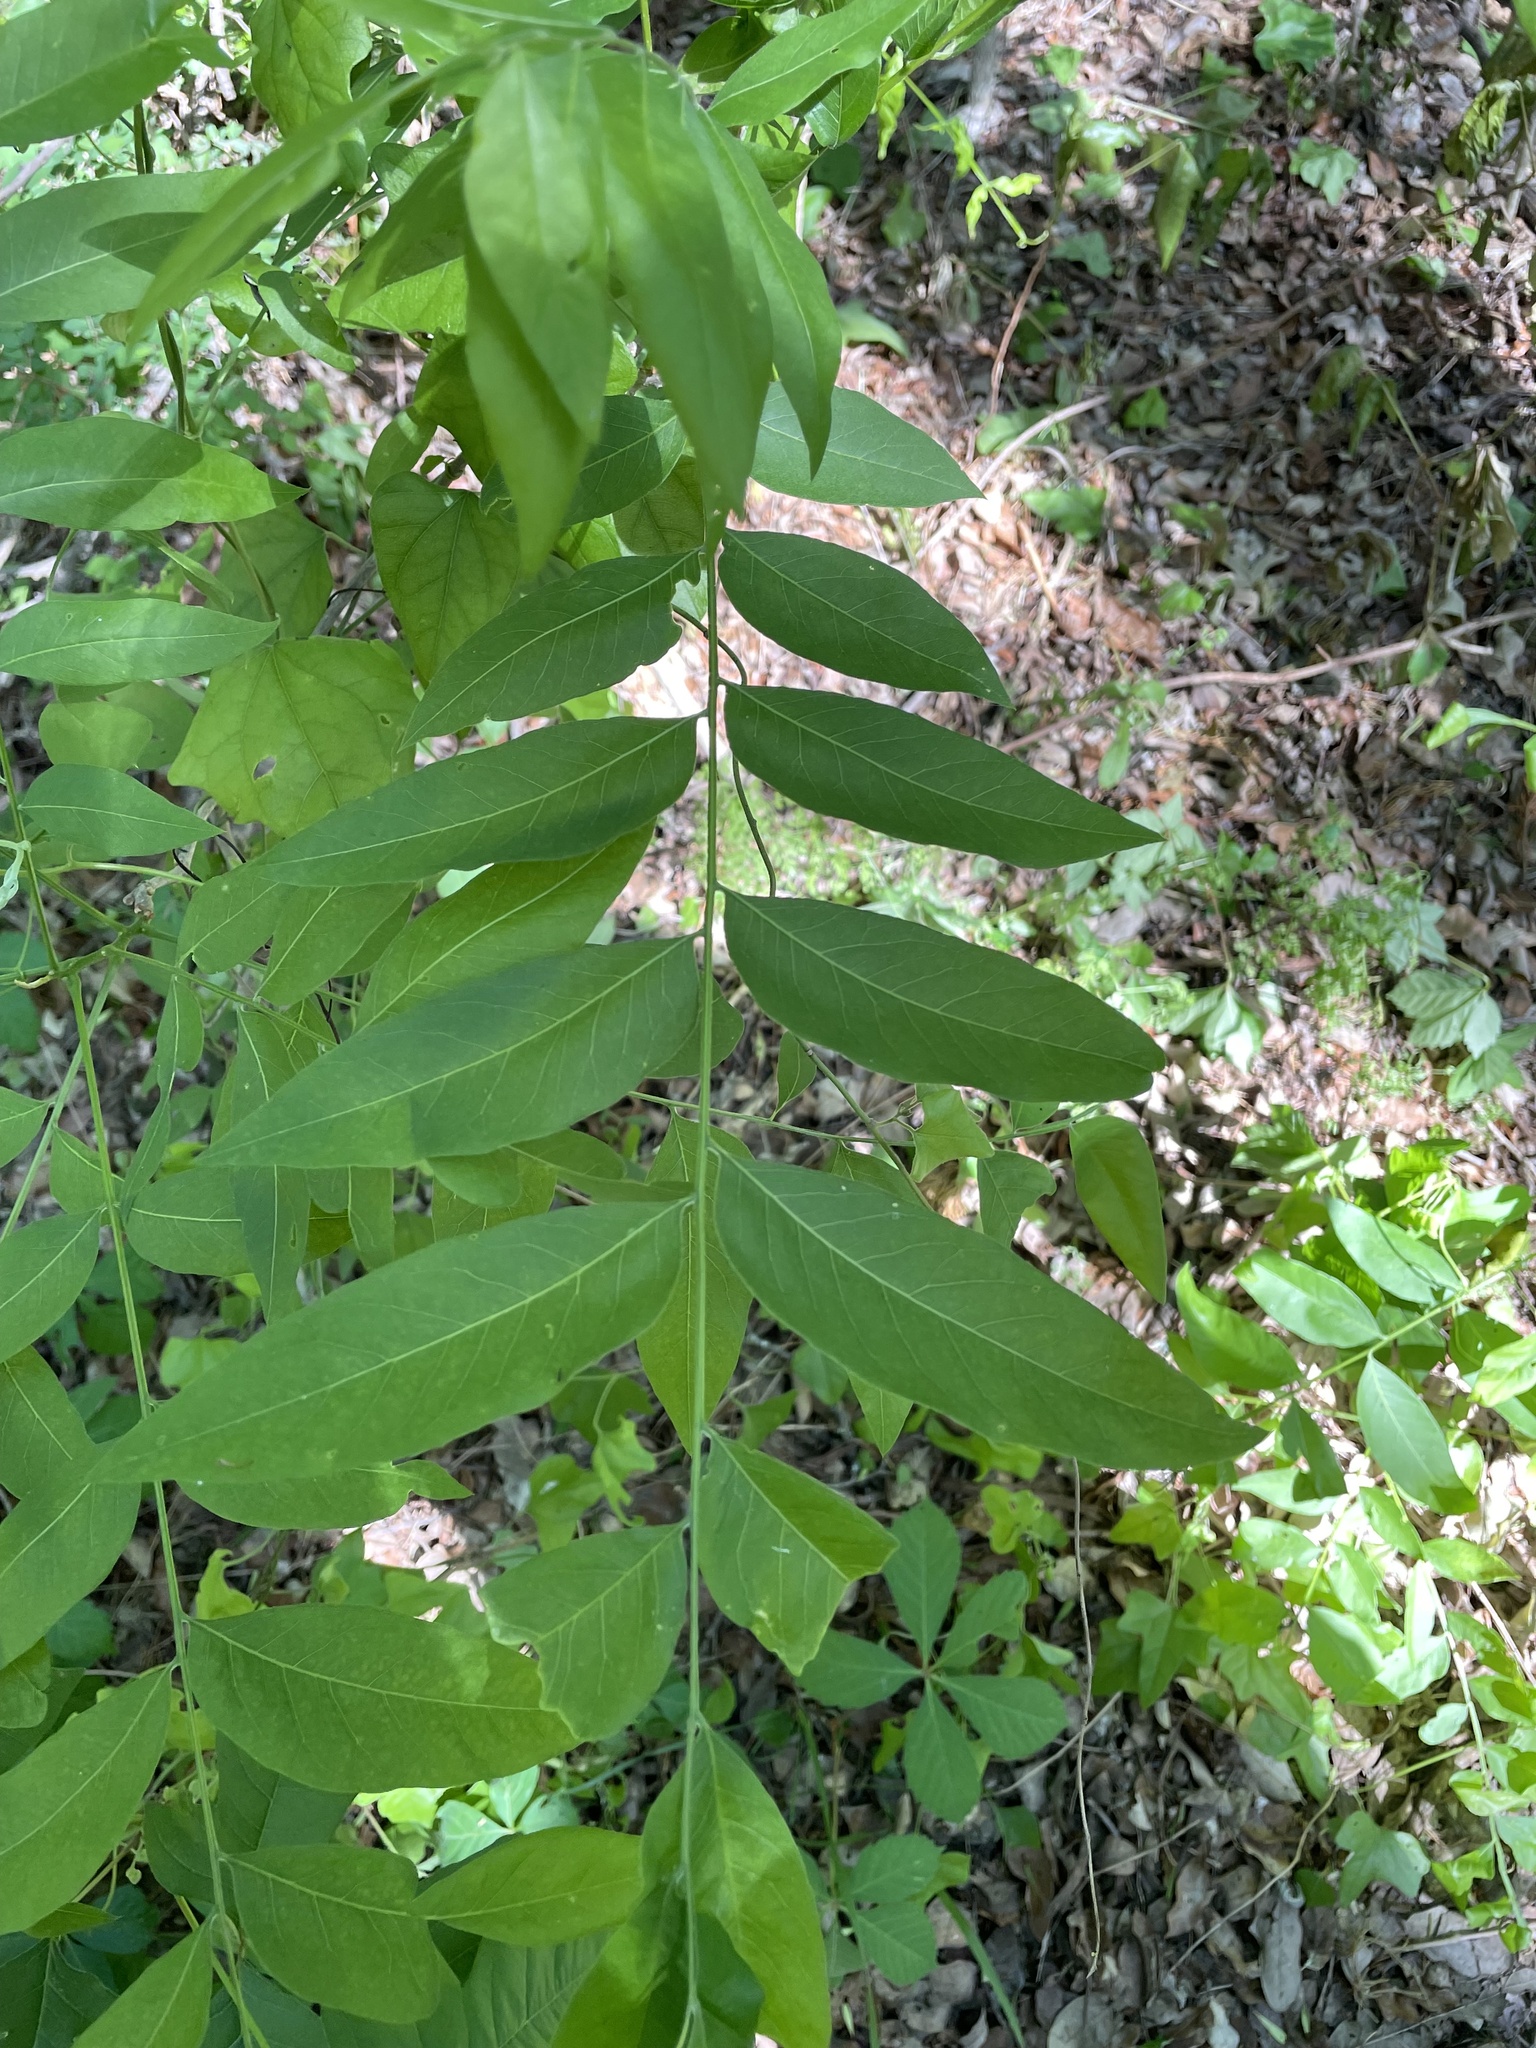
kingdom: Plantae
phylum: Tracheophyta
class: Magnoliopsida
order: Sapindales
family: Sapindaceae
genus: Sapindus
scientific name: Sapindus drummondii
